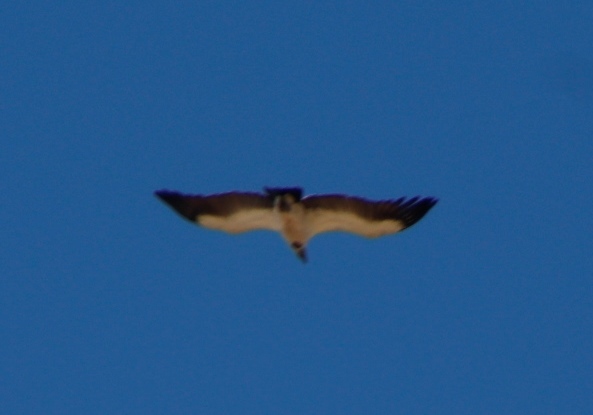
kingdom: Animalia
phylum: Chordata
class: Aves
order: Accipitriformes
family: Accipitridae
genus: Gyps
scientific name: Gyps coprotheres
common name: Cape vulture
